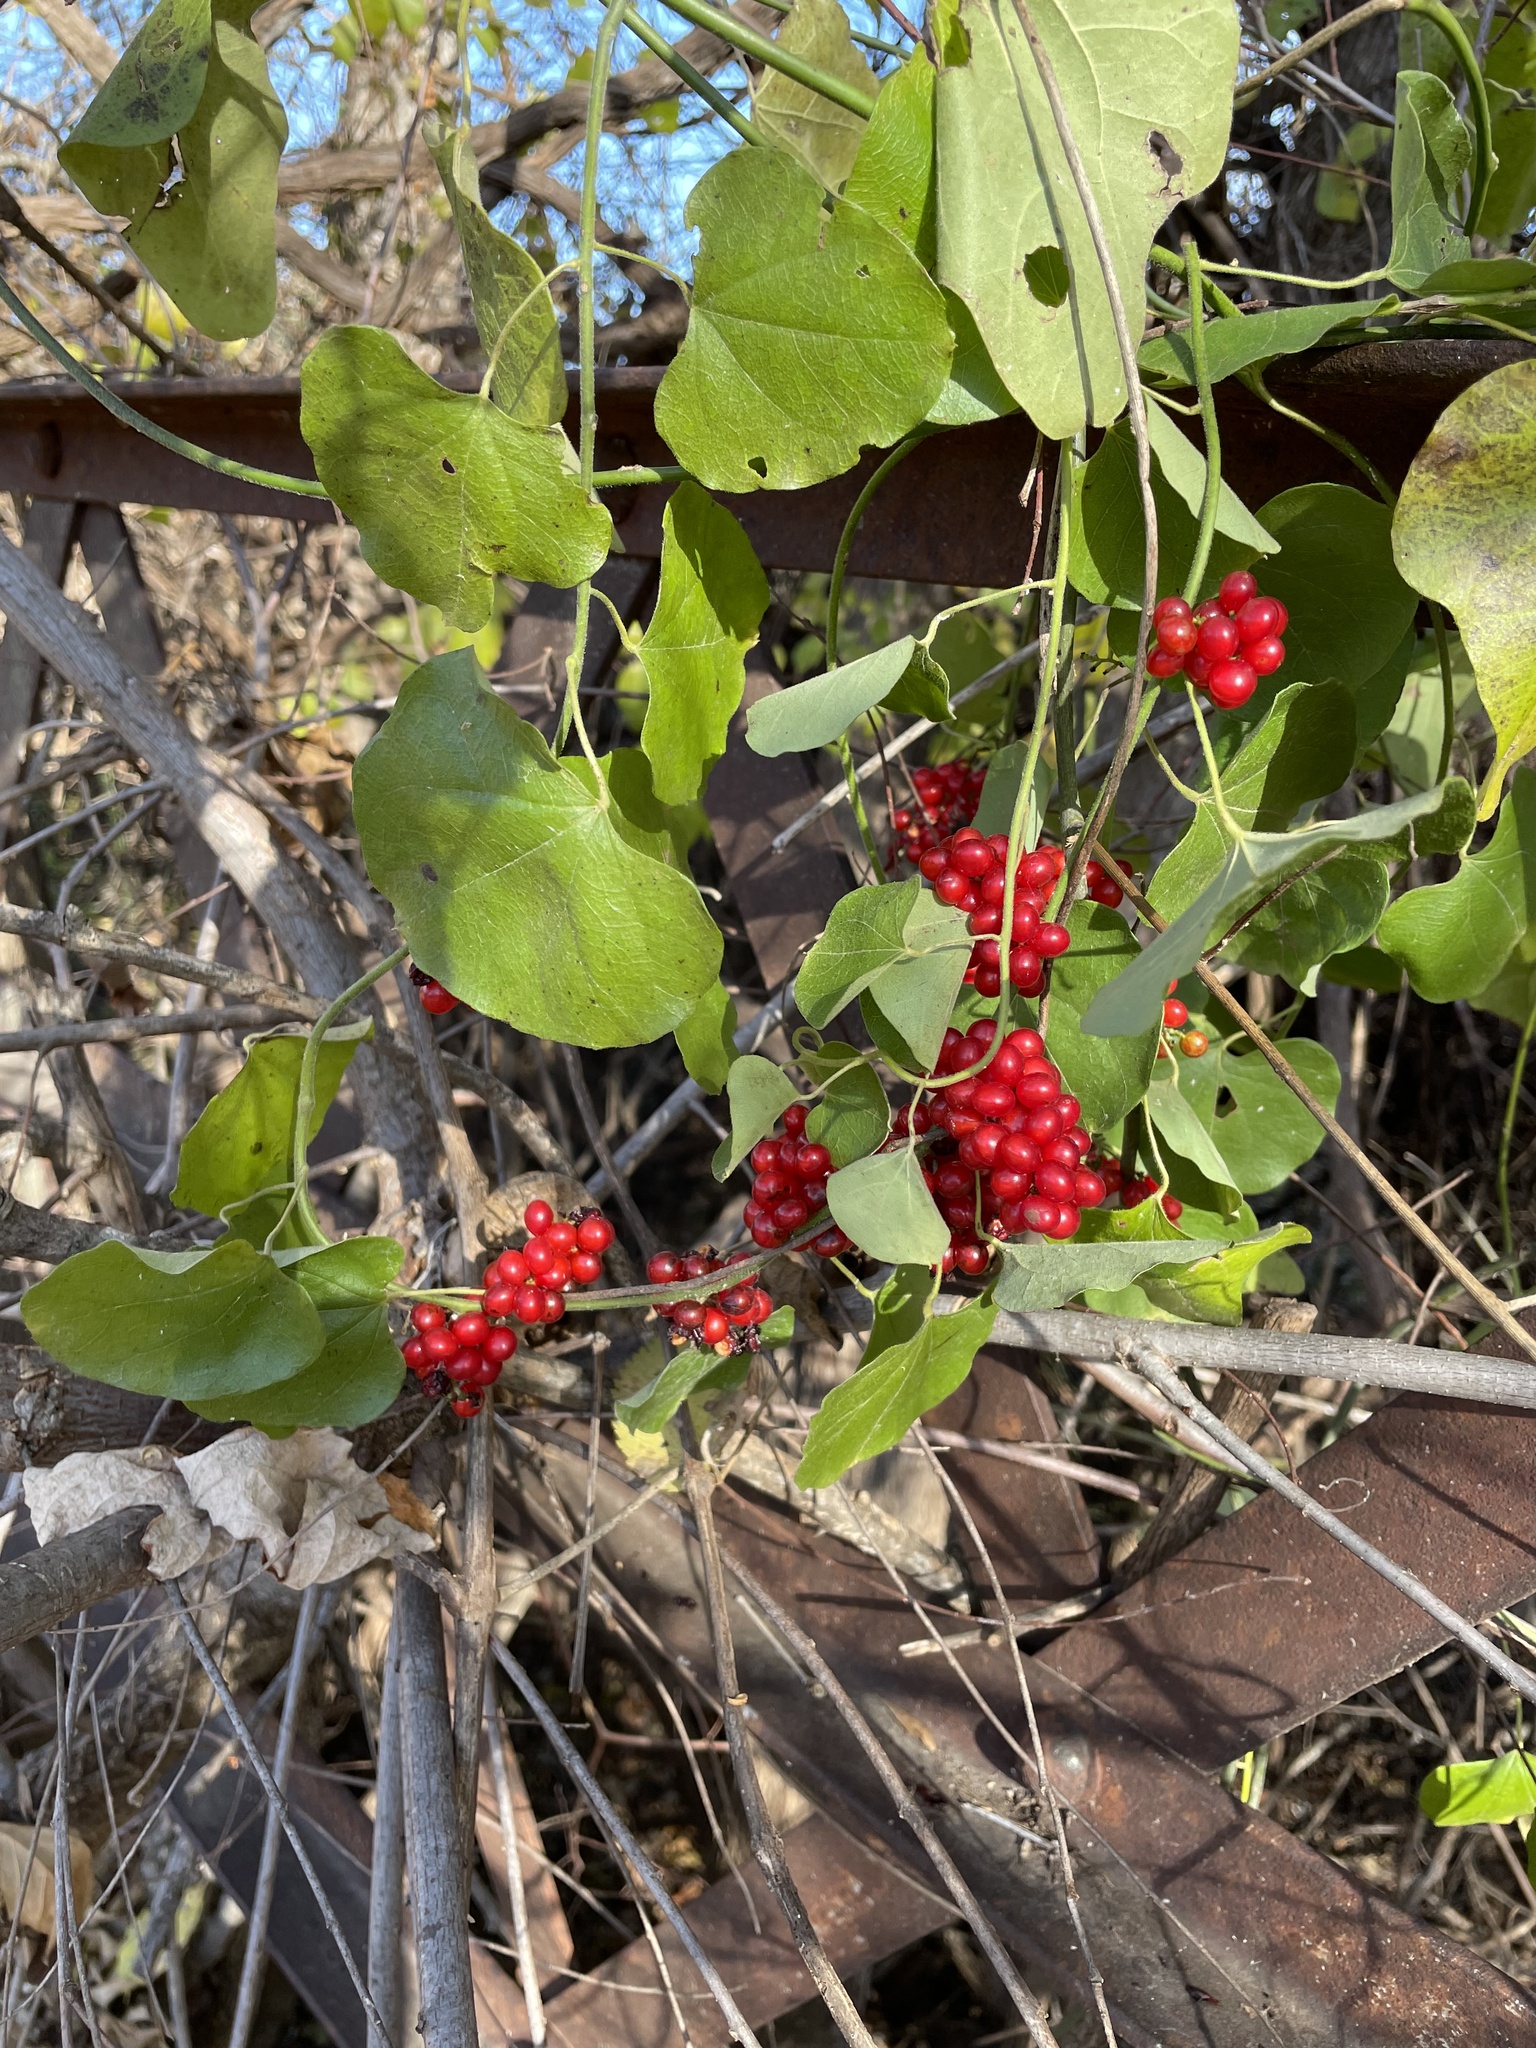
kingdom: Plantae
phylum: Tracheophyta
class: Magnoliopsida
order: Ranunculales
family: Menispermaceae
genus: Cocculus
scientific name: Cocculus carolinus
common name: Carolina moonseed
